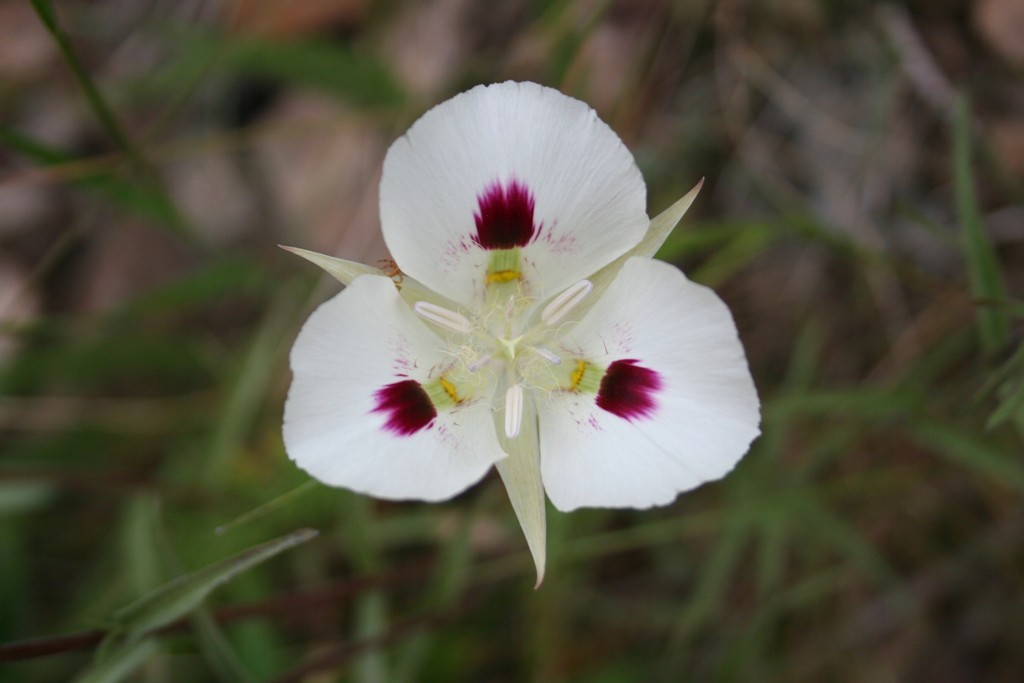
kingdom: Plantae
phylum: Tracheophyta
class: Liliopsida
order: Liliales
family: Liliaceae
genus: Calochortus
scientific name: Calochortus eurycarpus
